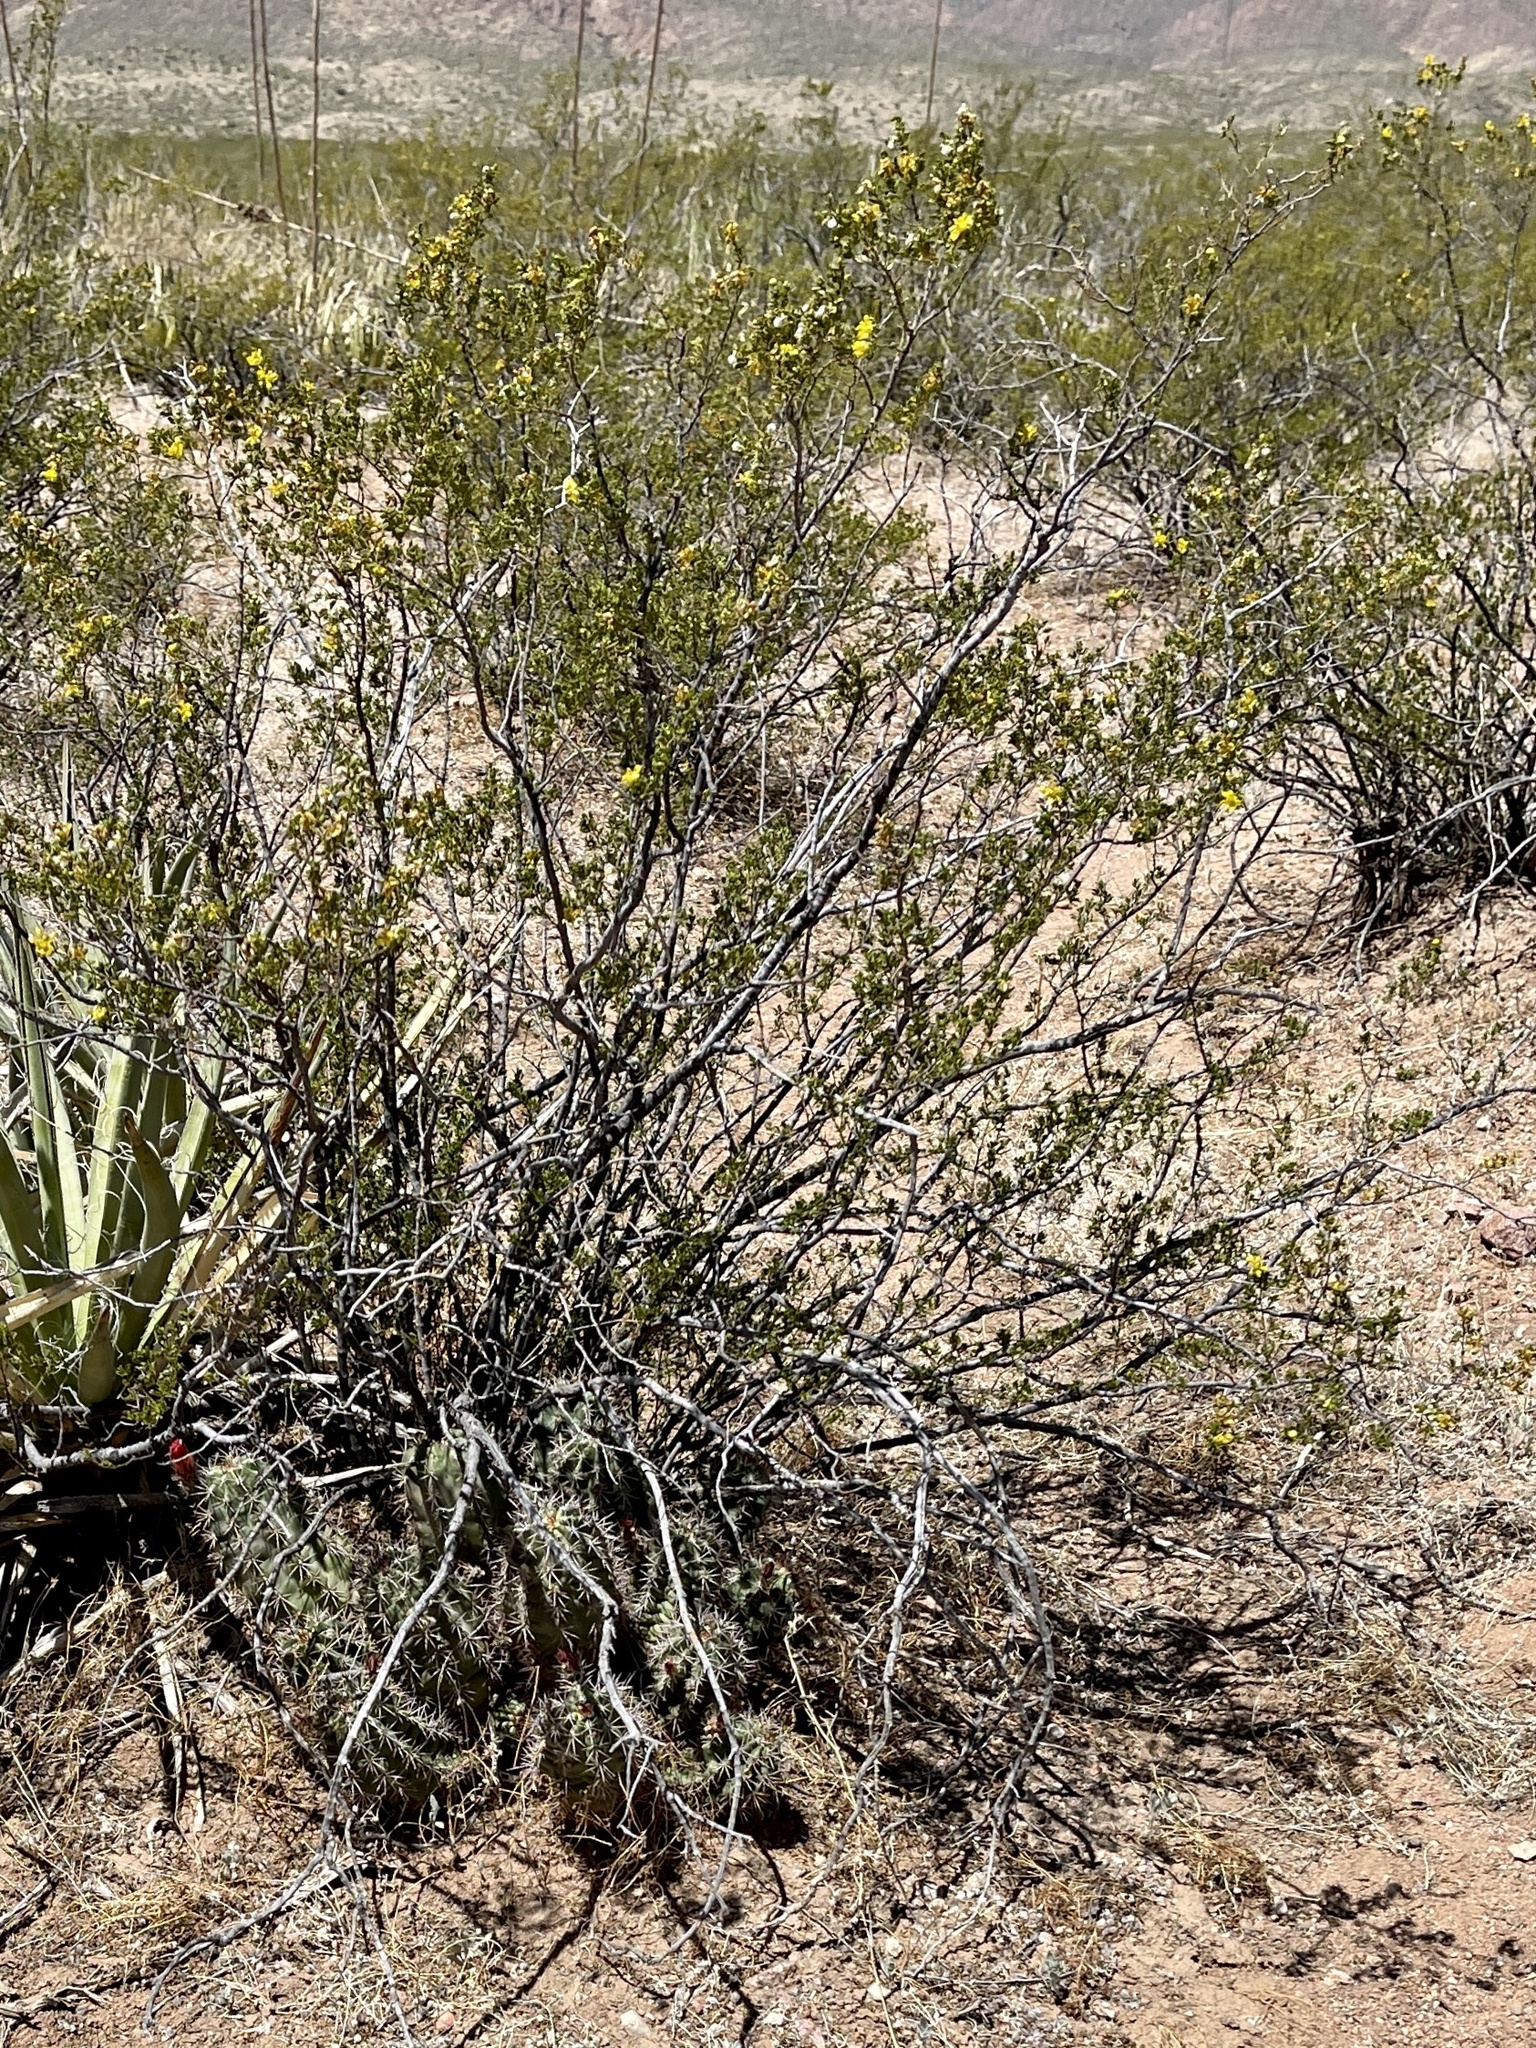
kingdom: Plantae
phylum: Tracheophyta
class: Magnoliopsida
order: Zygophyllales
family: Zygophyllaceae
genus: Larrea
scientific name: Larrea tridentata
